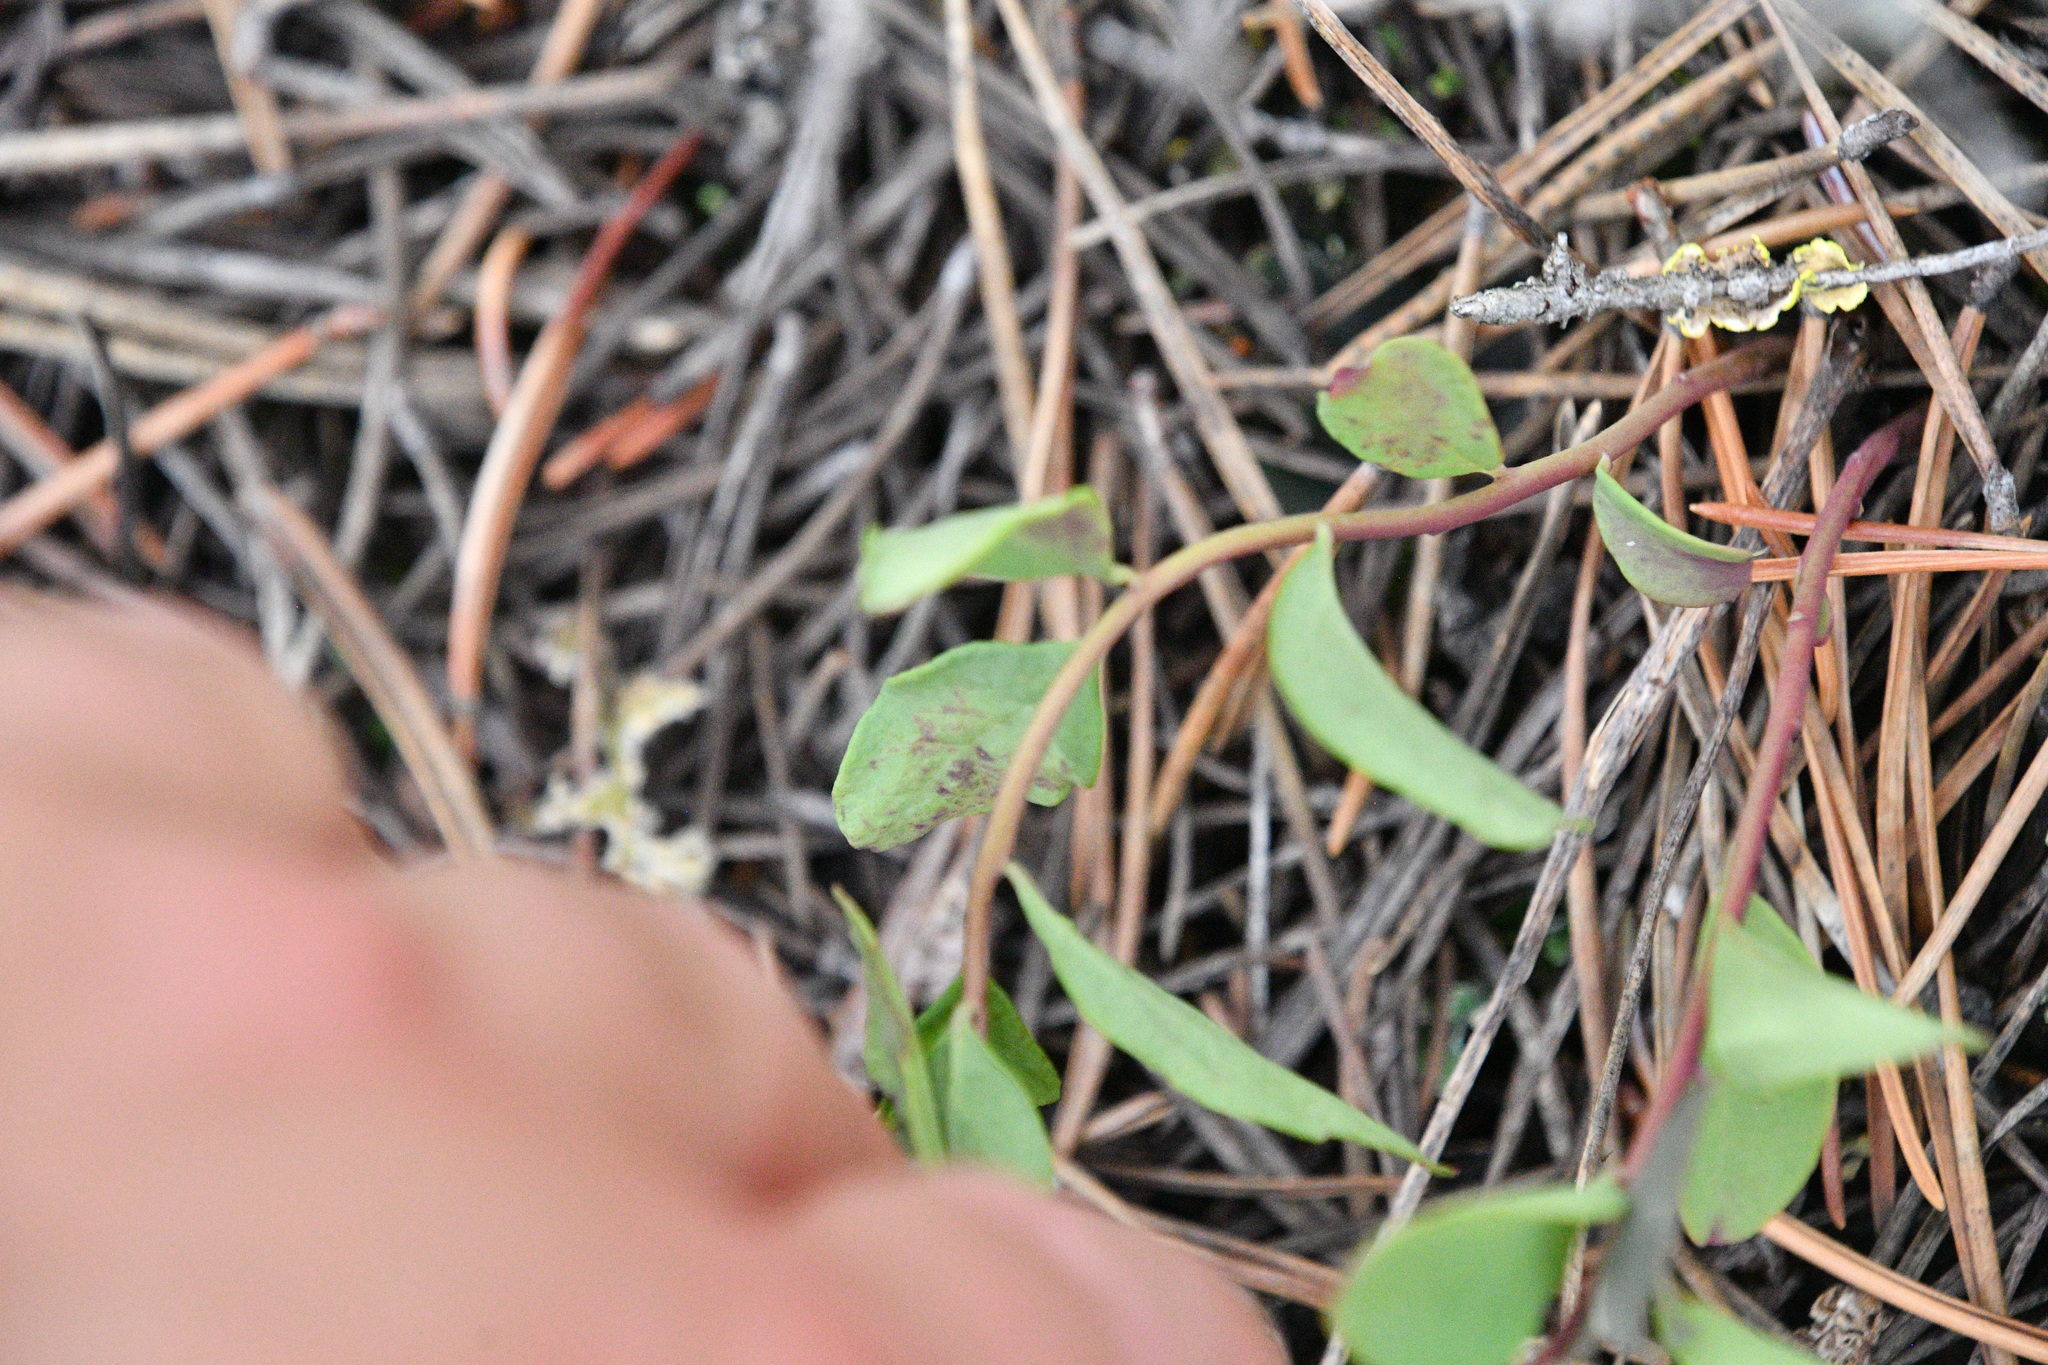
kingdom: Plantae
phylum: Tracheophyta
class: Magnoliopsida
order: Santalales
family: Comandraceae
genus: Geocaulon
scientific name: Geocaulon lividum
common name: Earthberry
